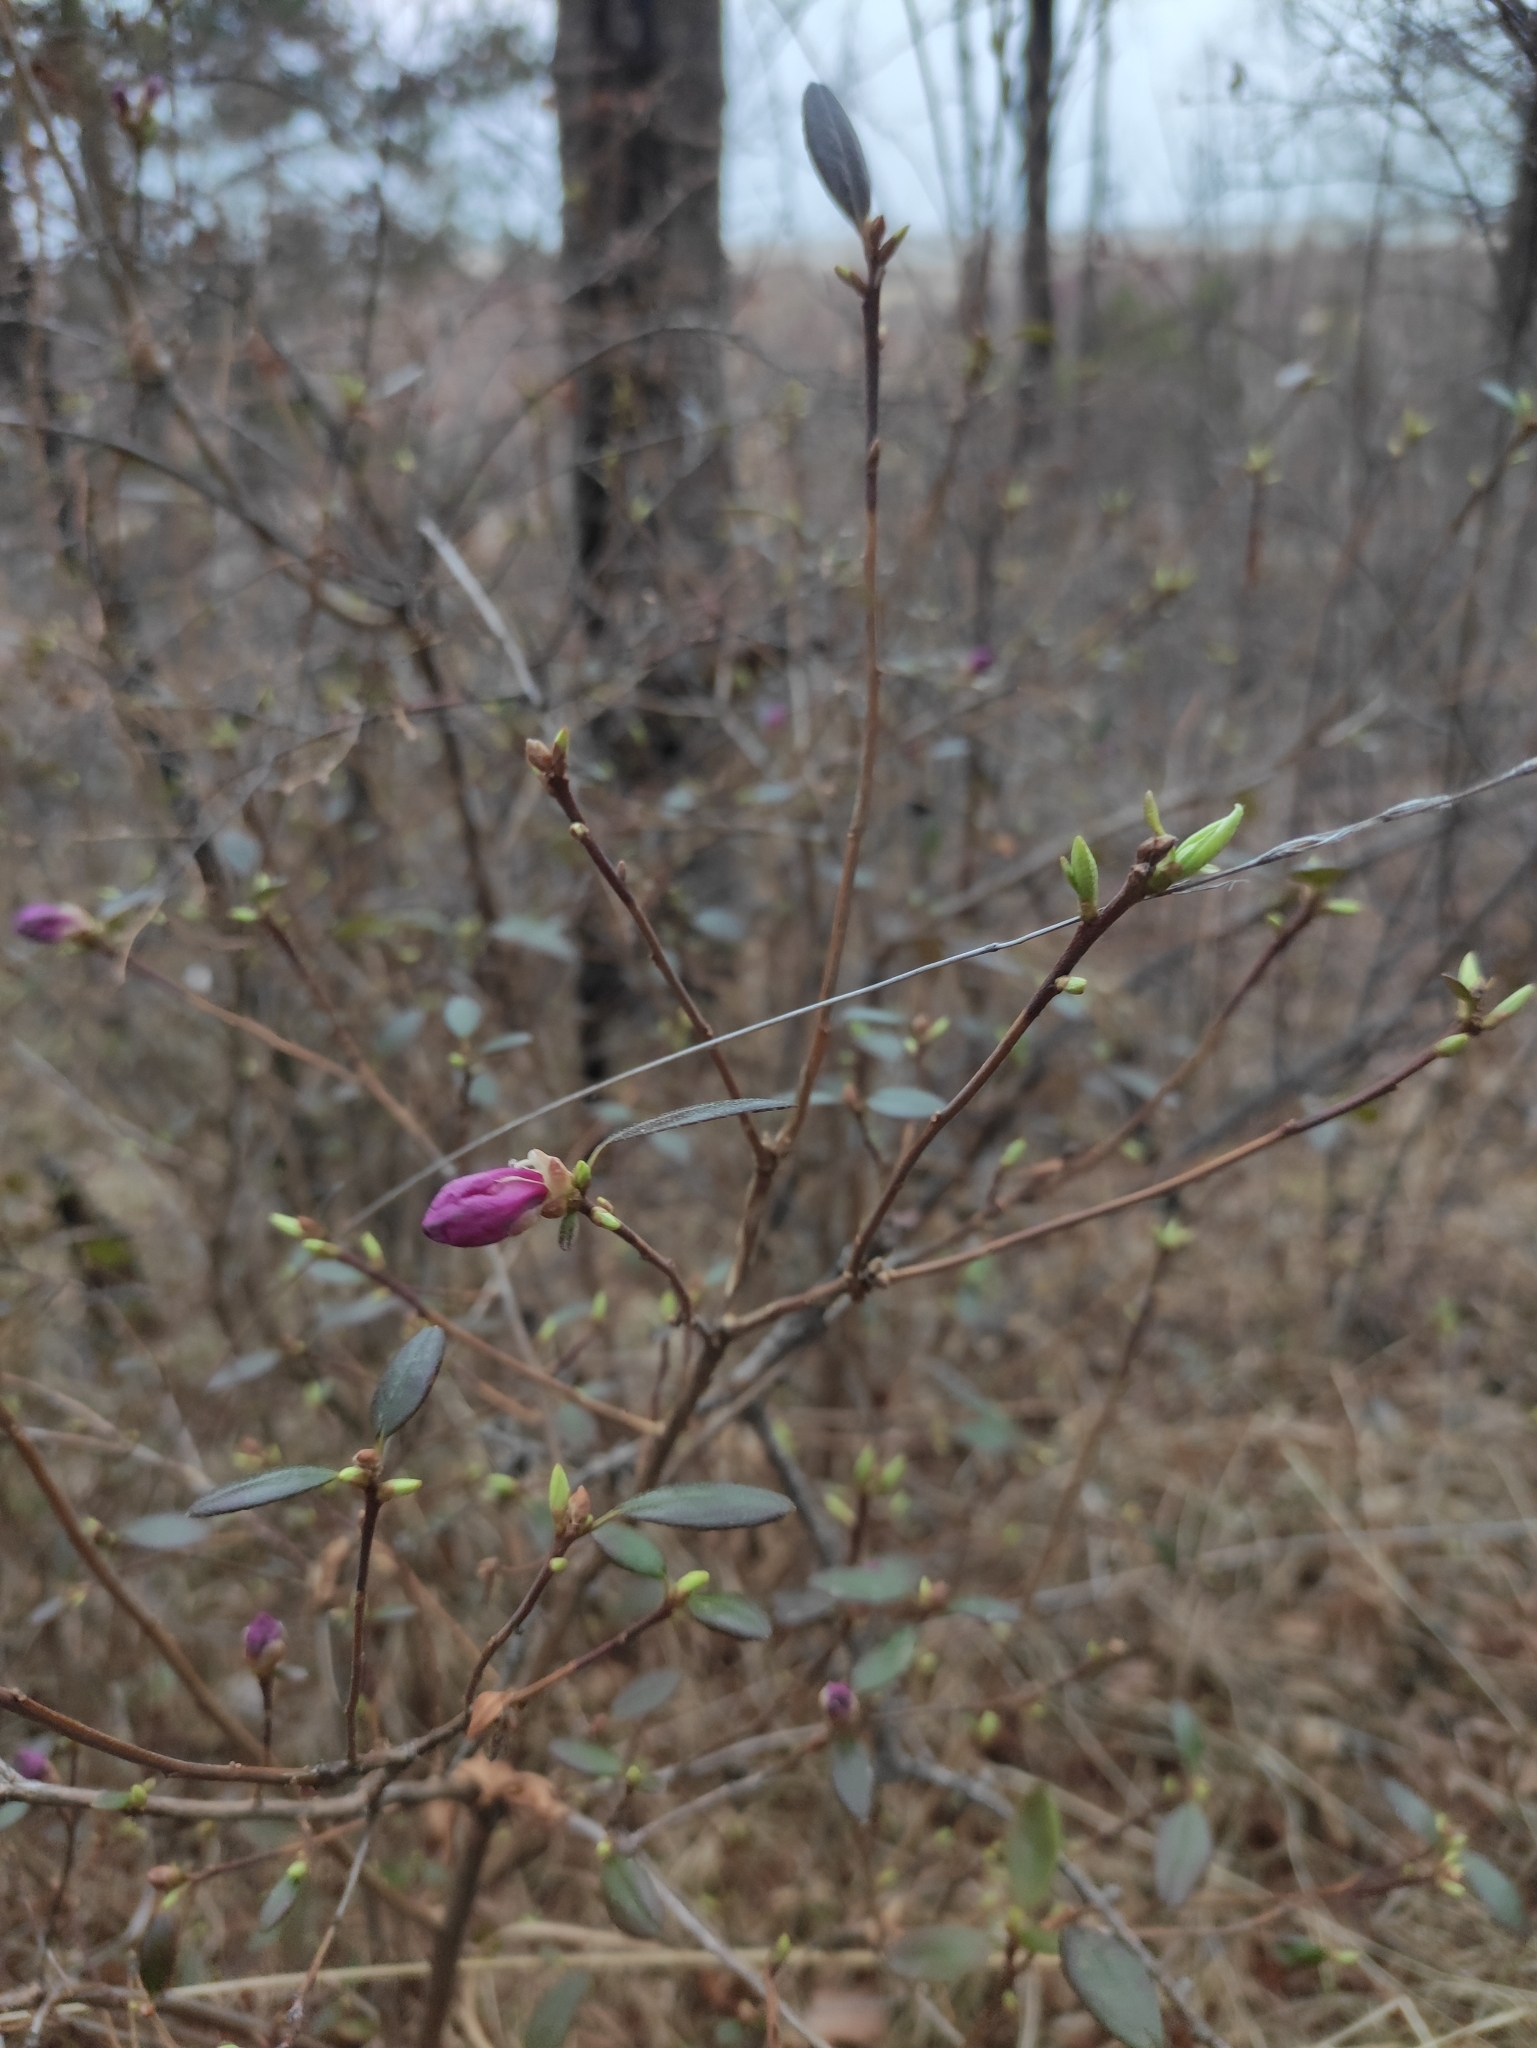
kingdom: Plantae
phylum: Tracheophyta
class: Magnoliopsida
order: Ericales
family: Ericaceae
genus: Rhododendron
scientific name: Rhododendron dauricum
